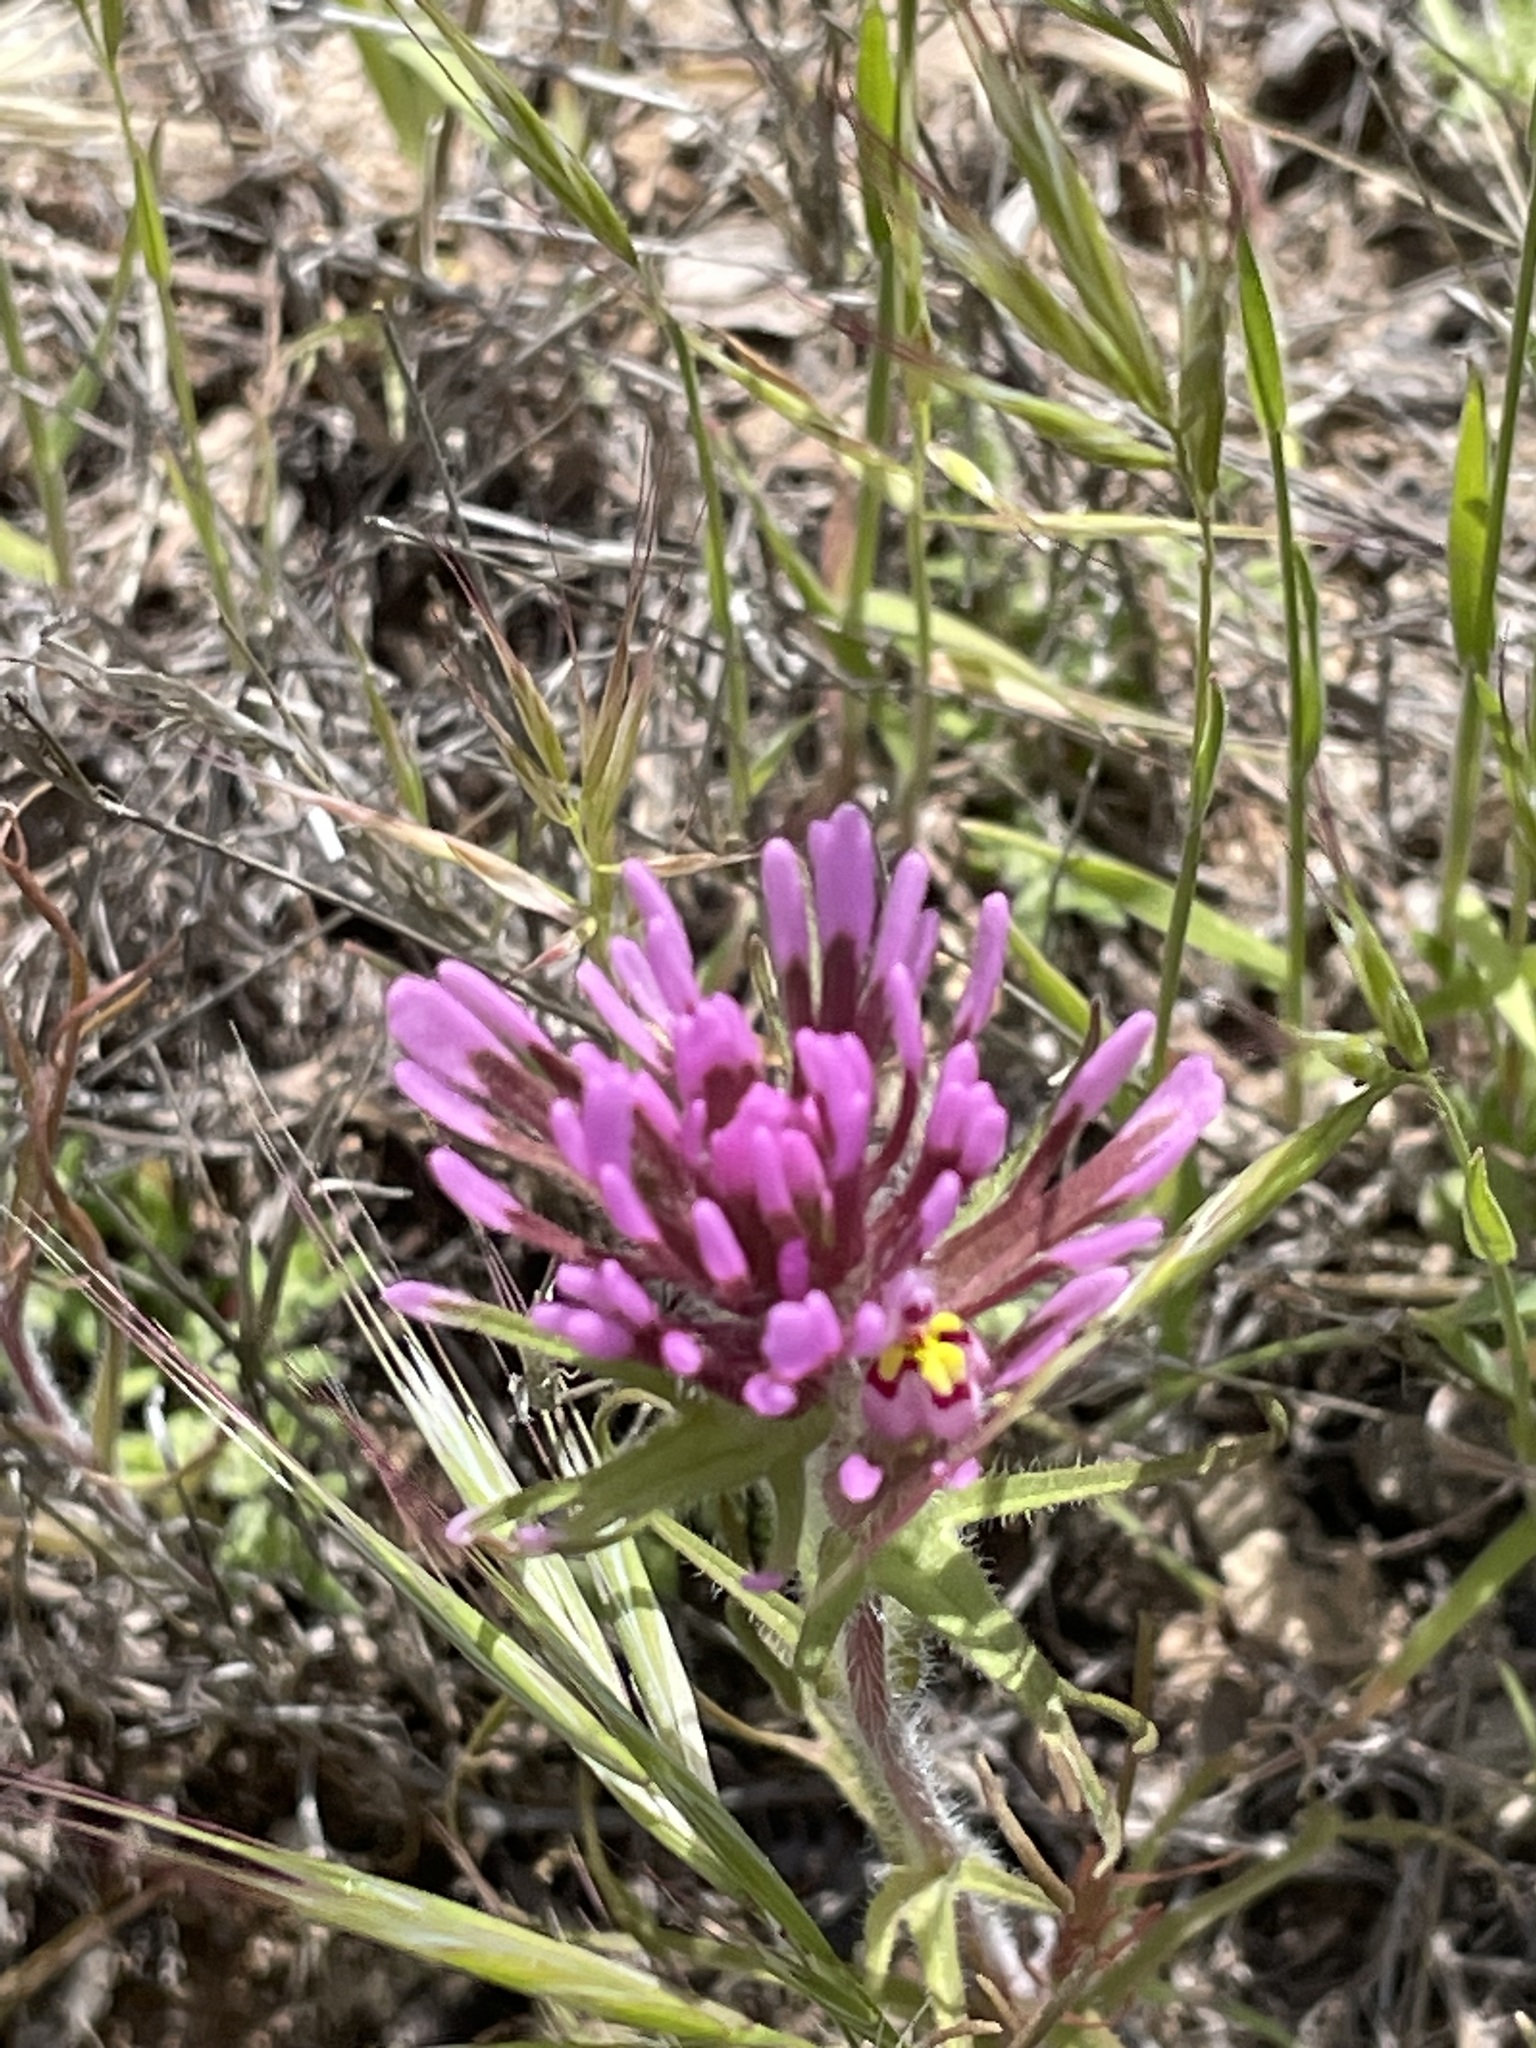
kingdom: Plantae
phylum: Tracheophyta
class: Magnoliopsida
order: Lamiales
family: Orobanchaceae
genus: Castilleja
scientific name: Castilleja exserta
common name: Purple owl-clover
